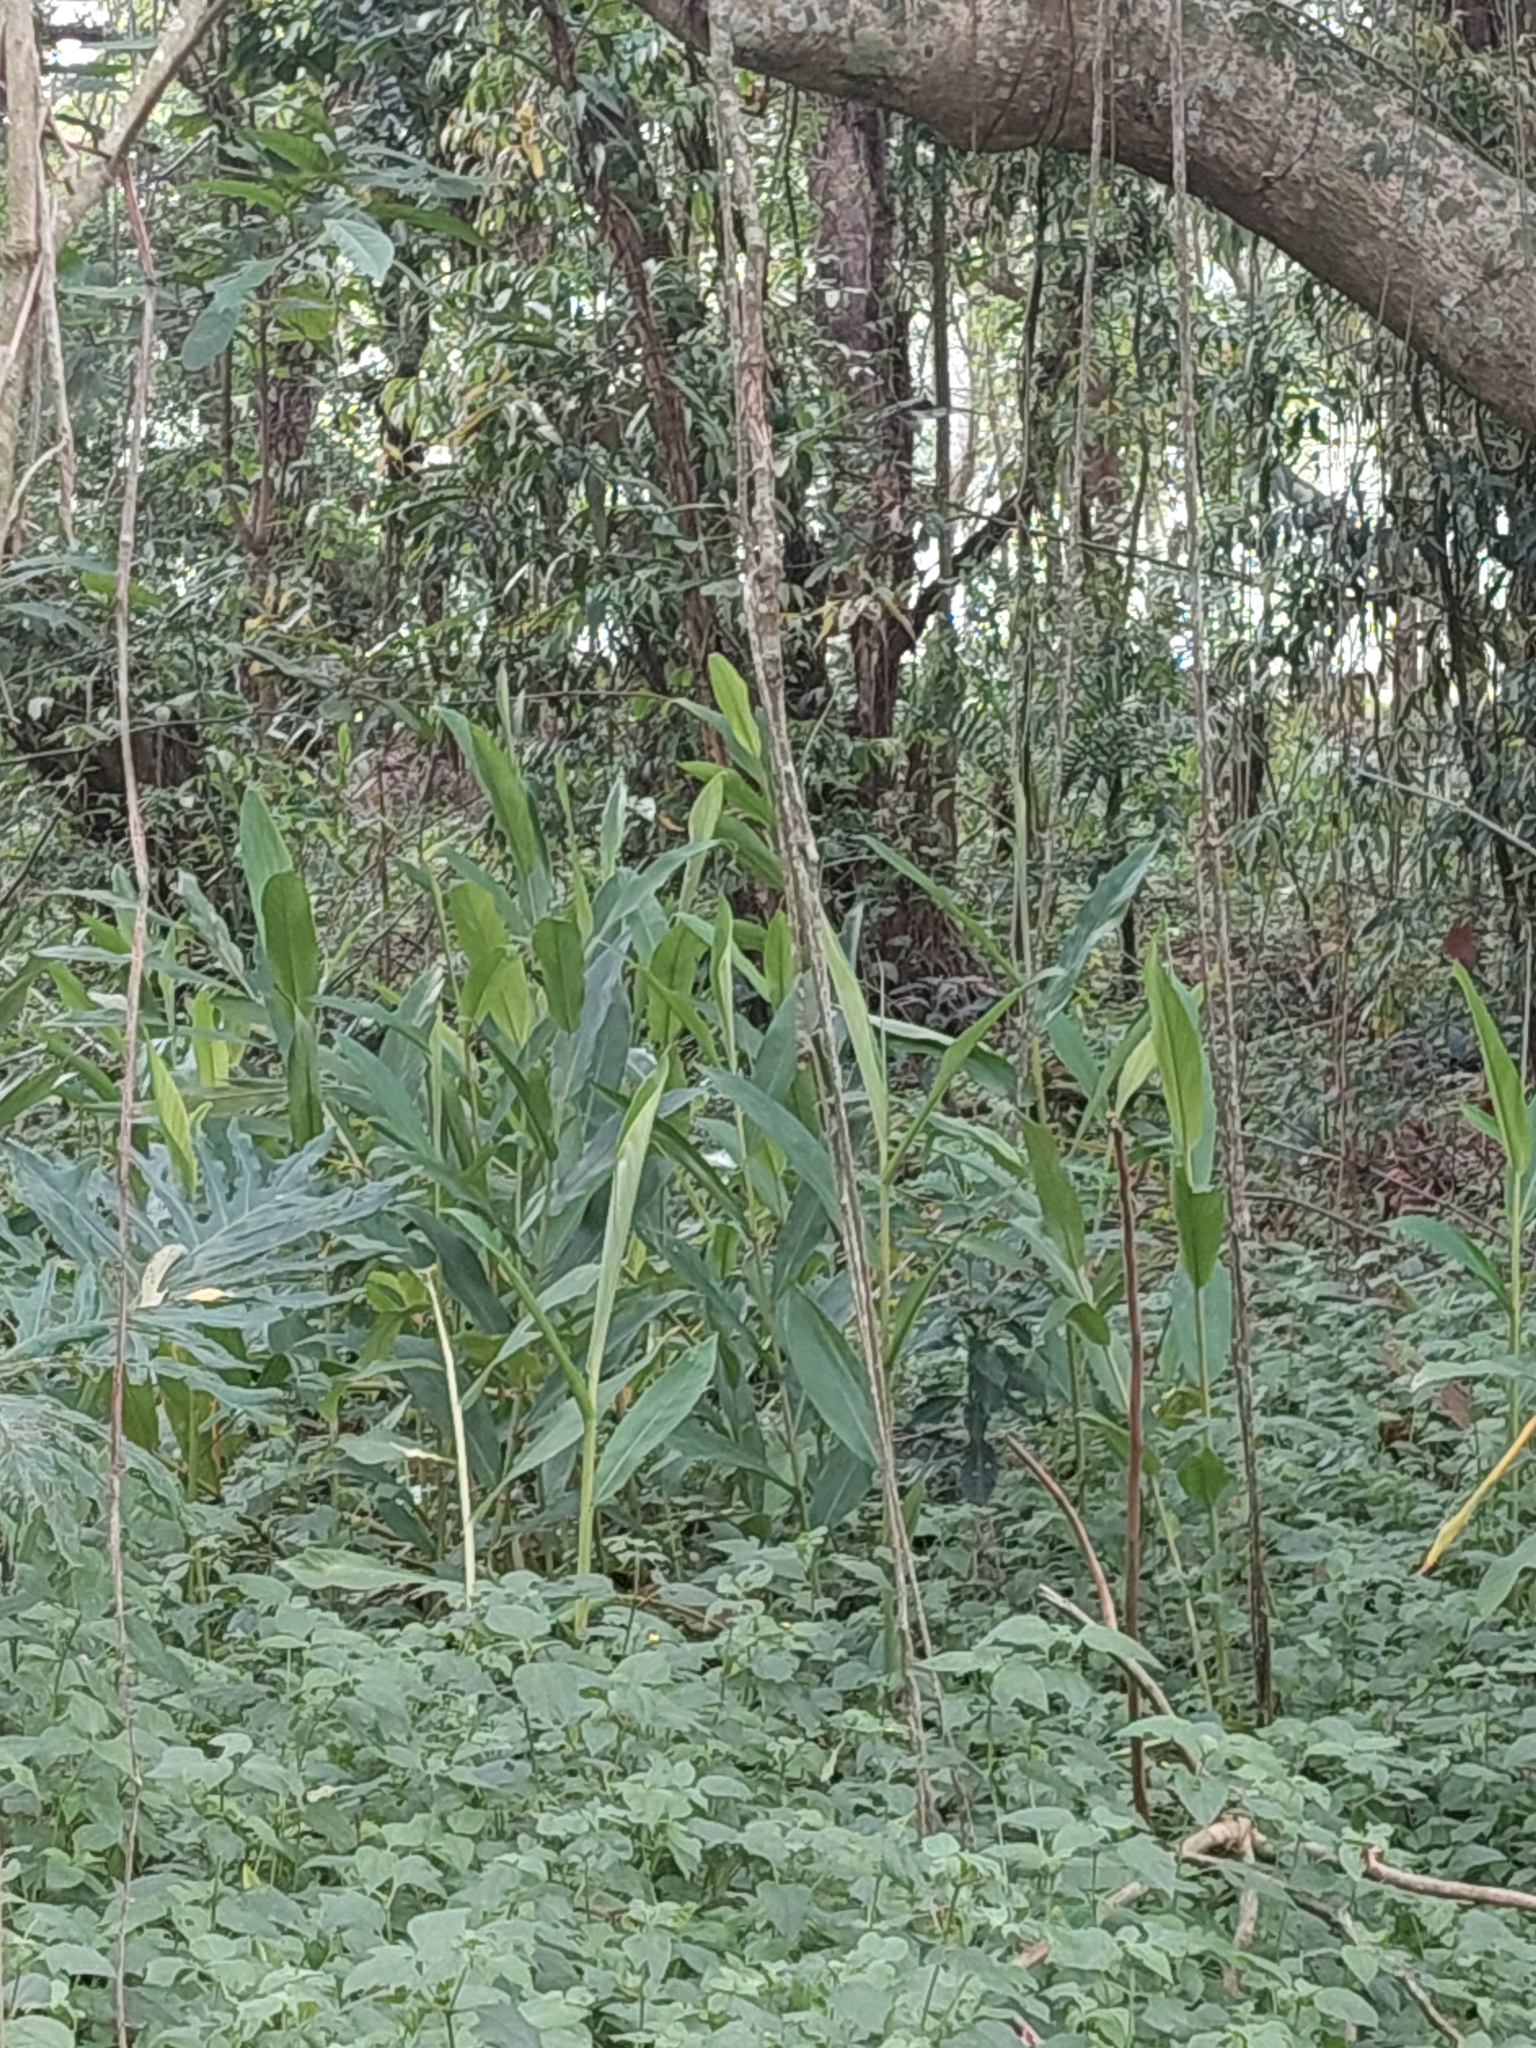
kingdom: Plantae
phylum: Tracheophyta
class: Liliopsida
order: Zingiberales
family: Zingiberaceae
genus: Hedychium
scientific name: Hedychium coronarium
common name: White garland-lily
